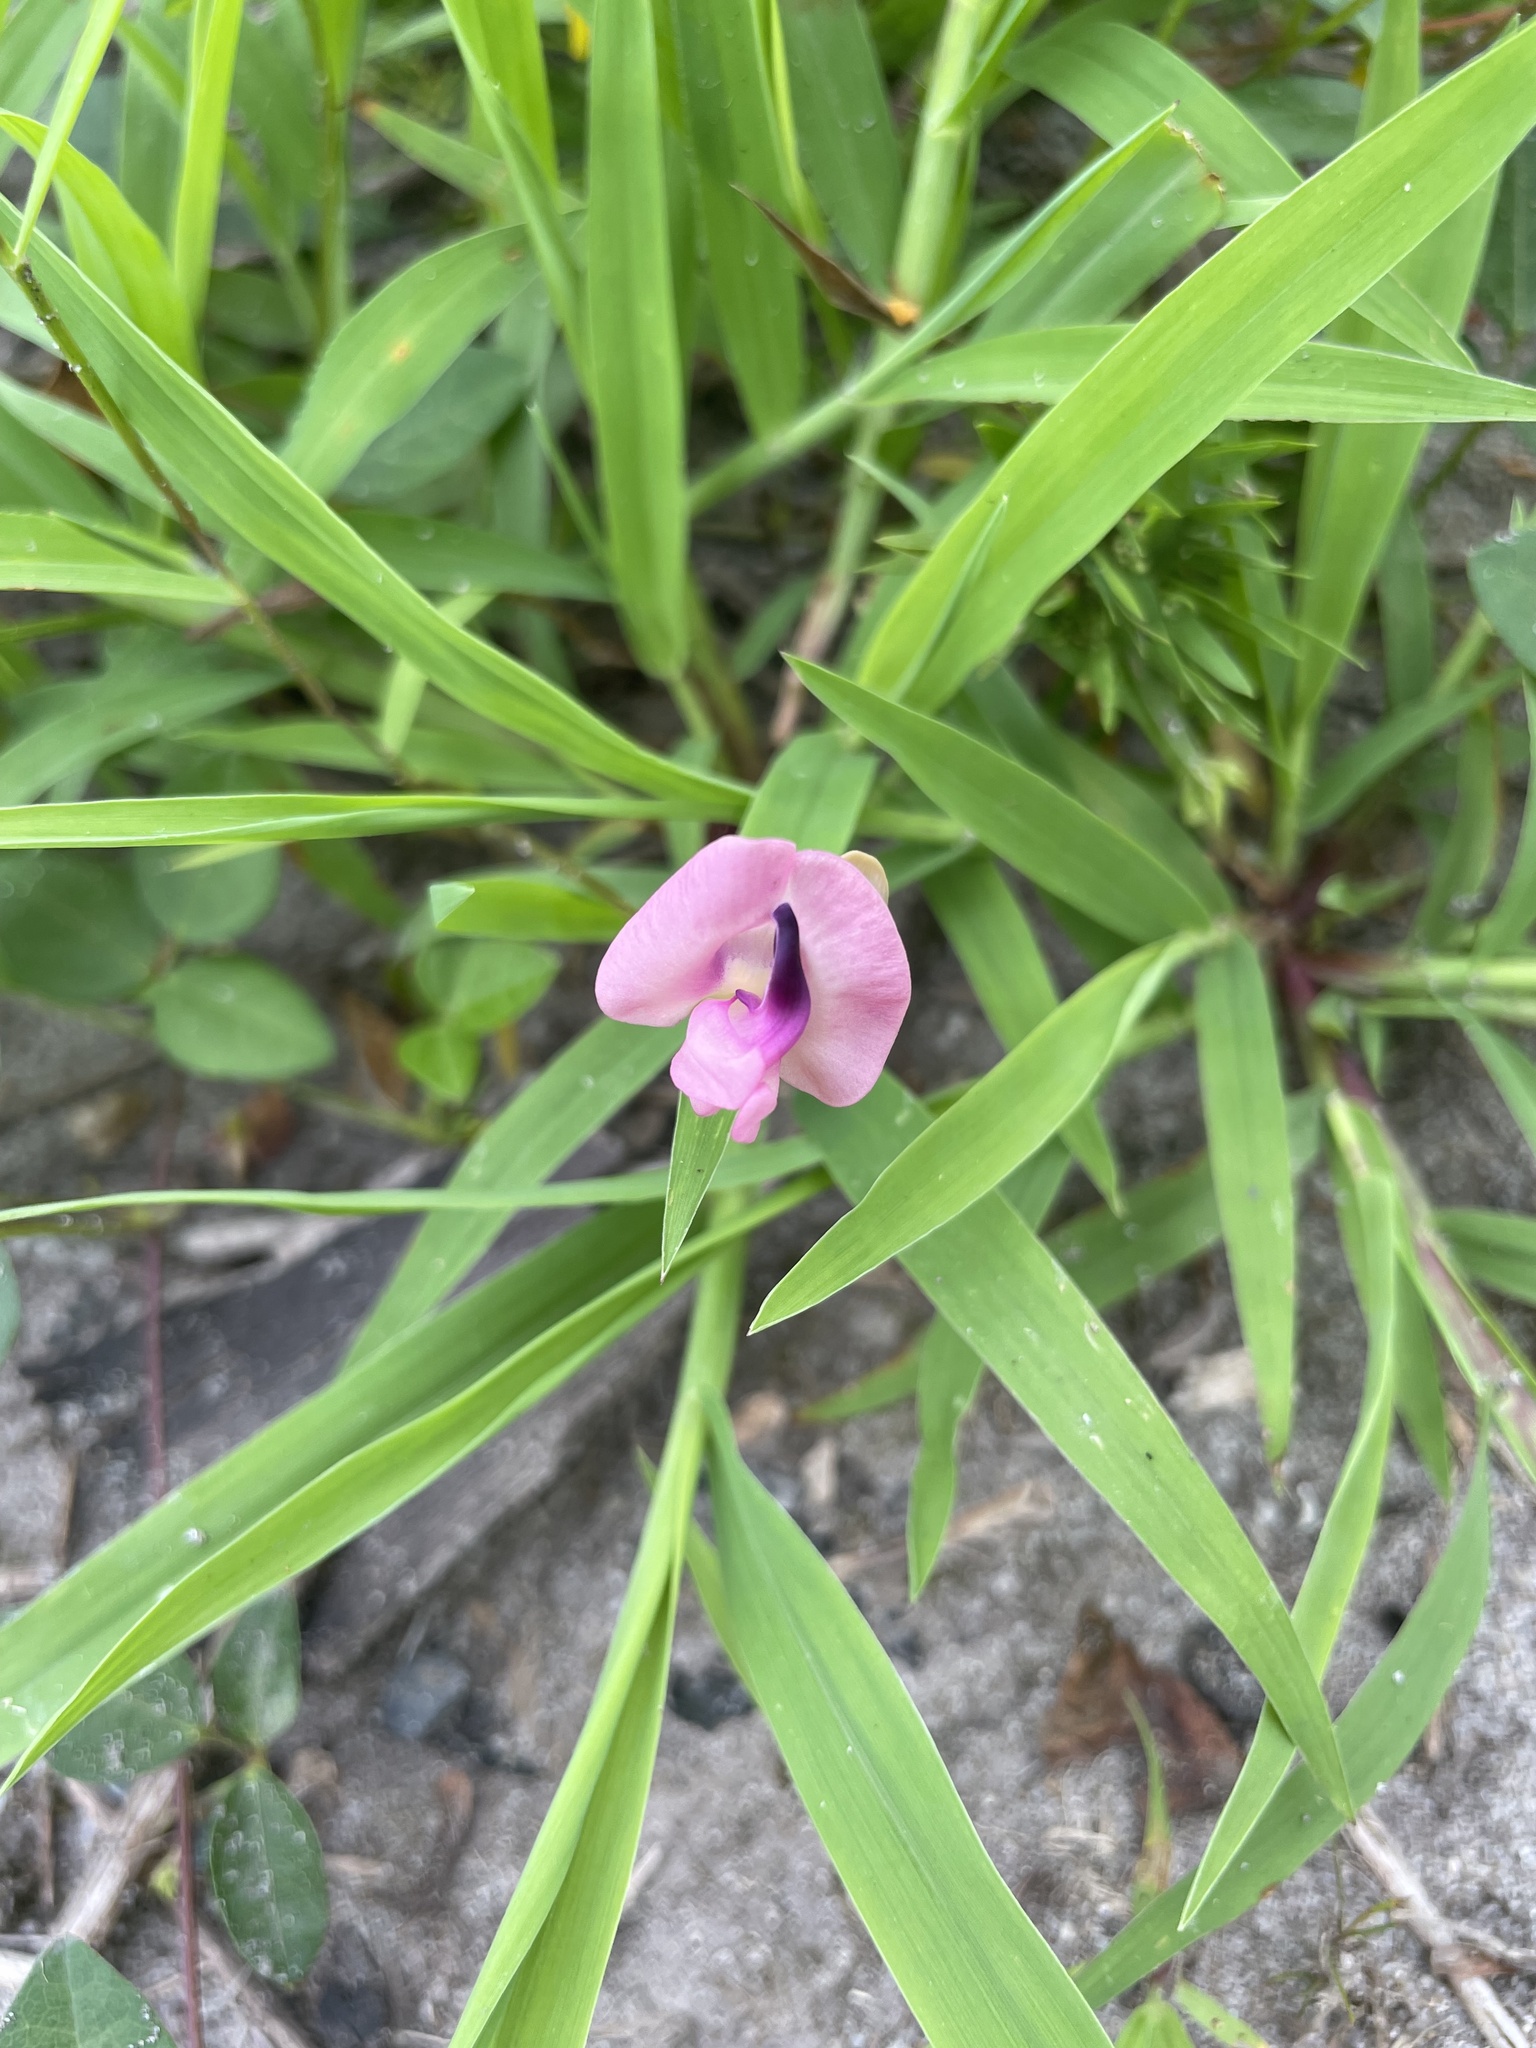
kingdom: Plantae
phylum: Tracheophyta
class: Magnoliopsida
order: Fabales
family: Fabaceae
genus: Strophostyles
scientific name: Strophostyles umbellata
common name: Perennial wild bean
